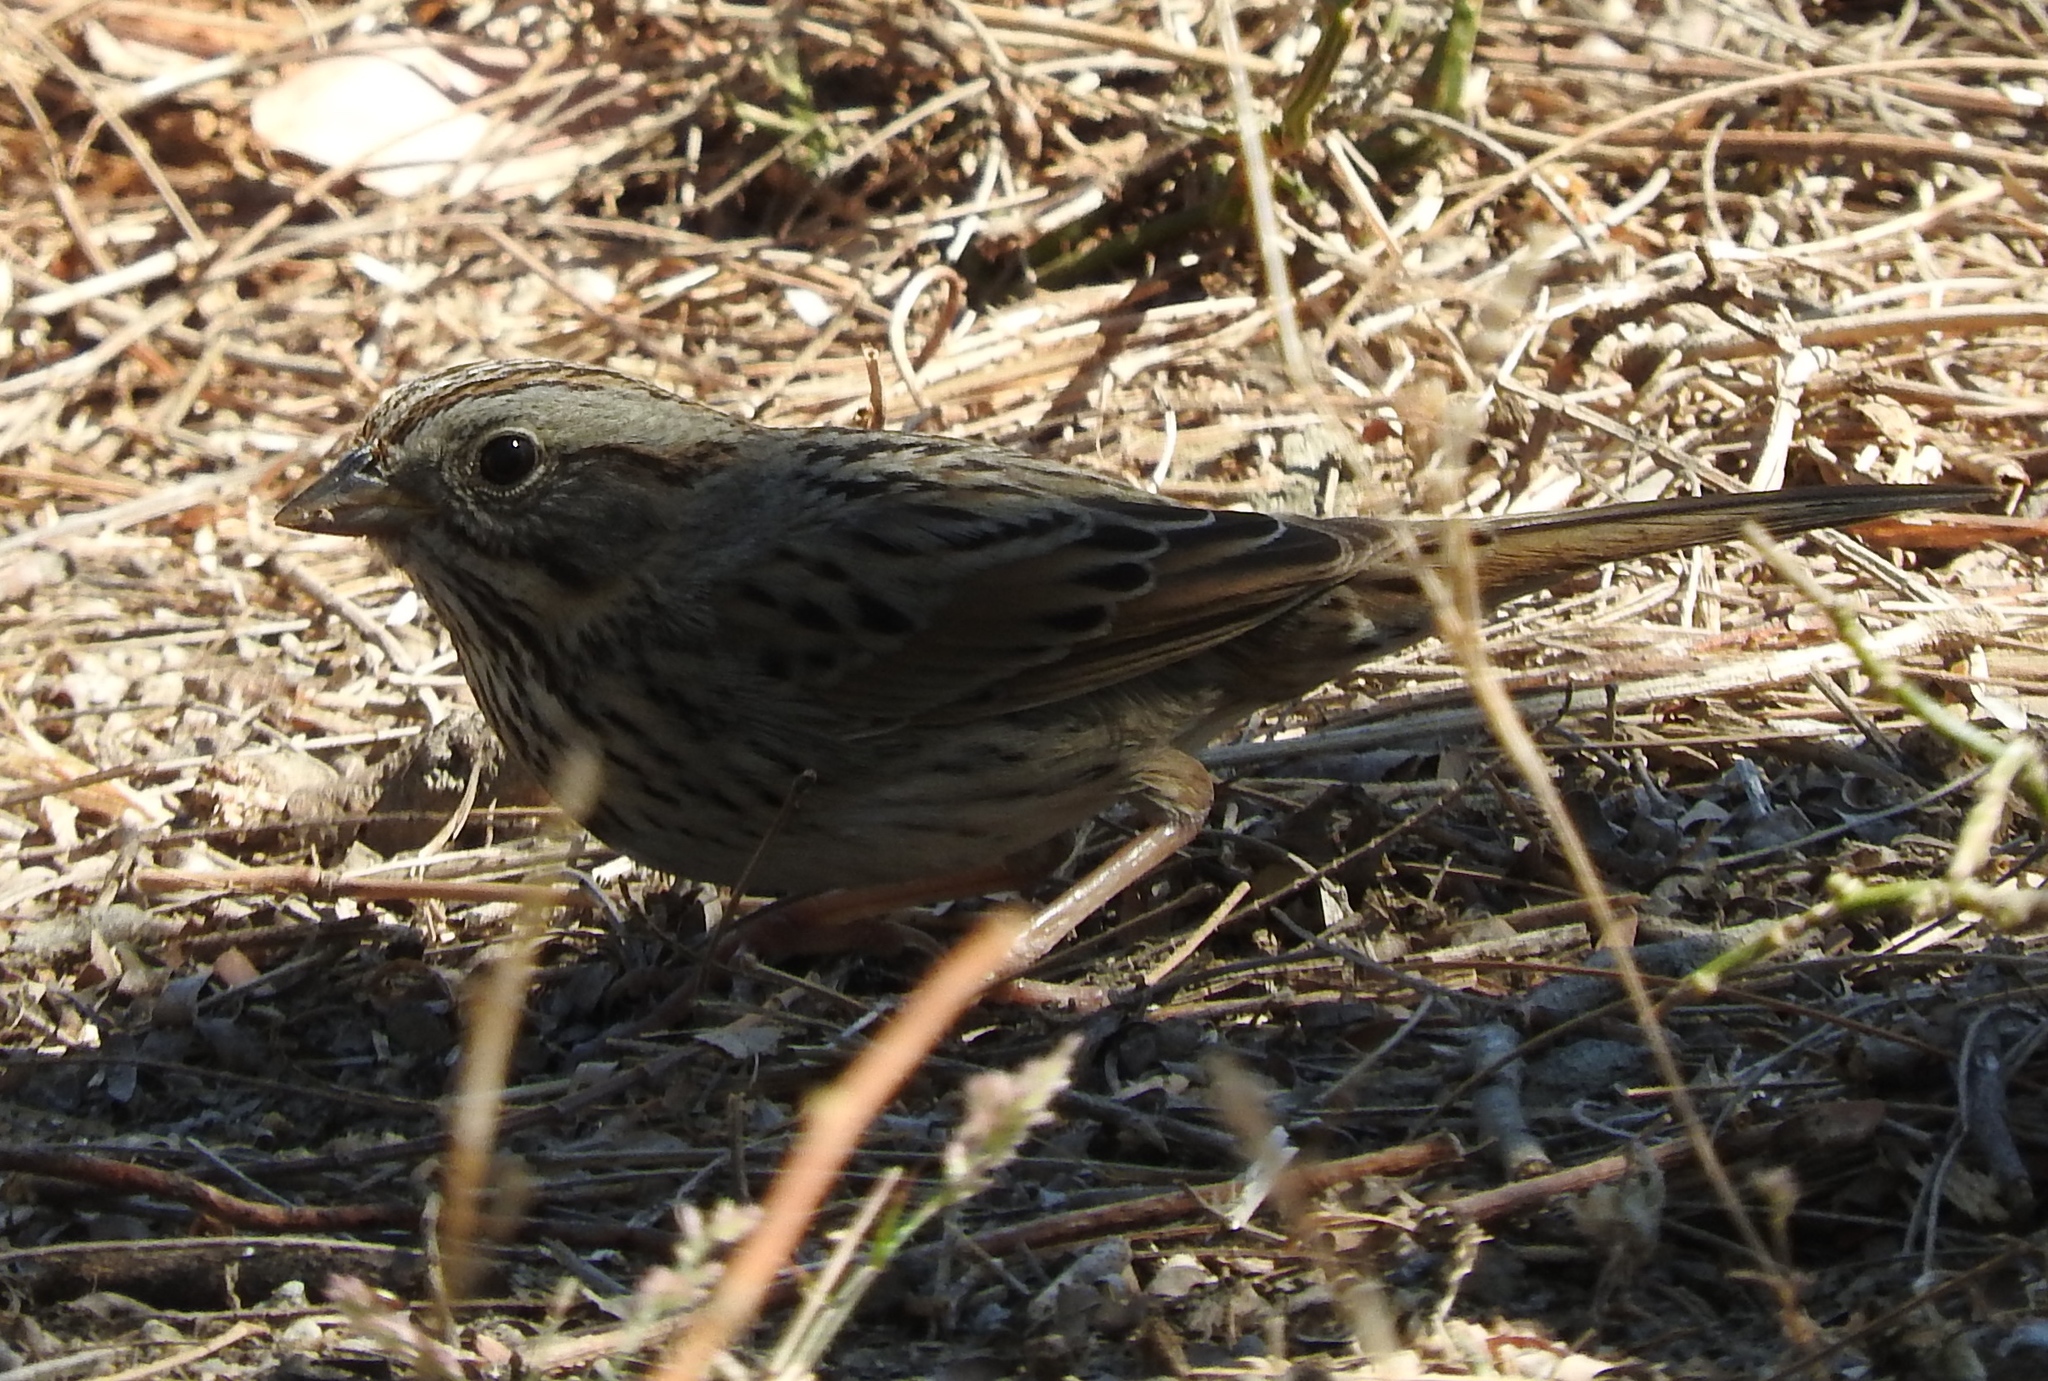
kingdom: Animalia
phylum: Chordata
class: Aves
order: Passeriformes
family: Passerellidae
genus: Melospiza
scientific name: Melospiza lincolnii
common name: Lincoln's sparrow
